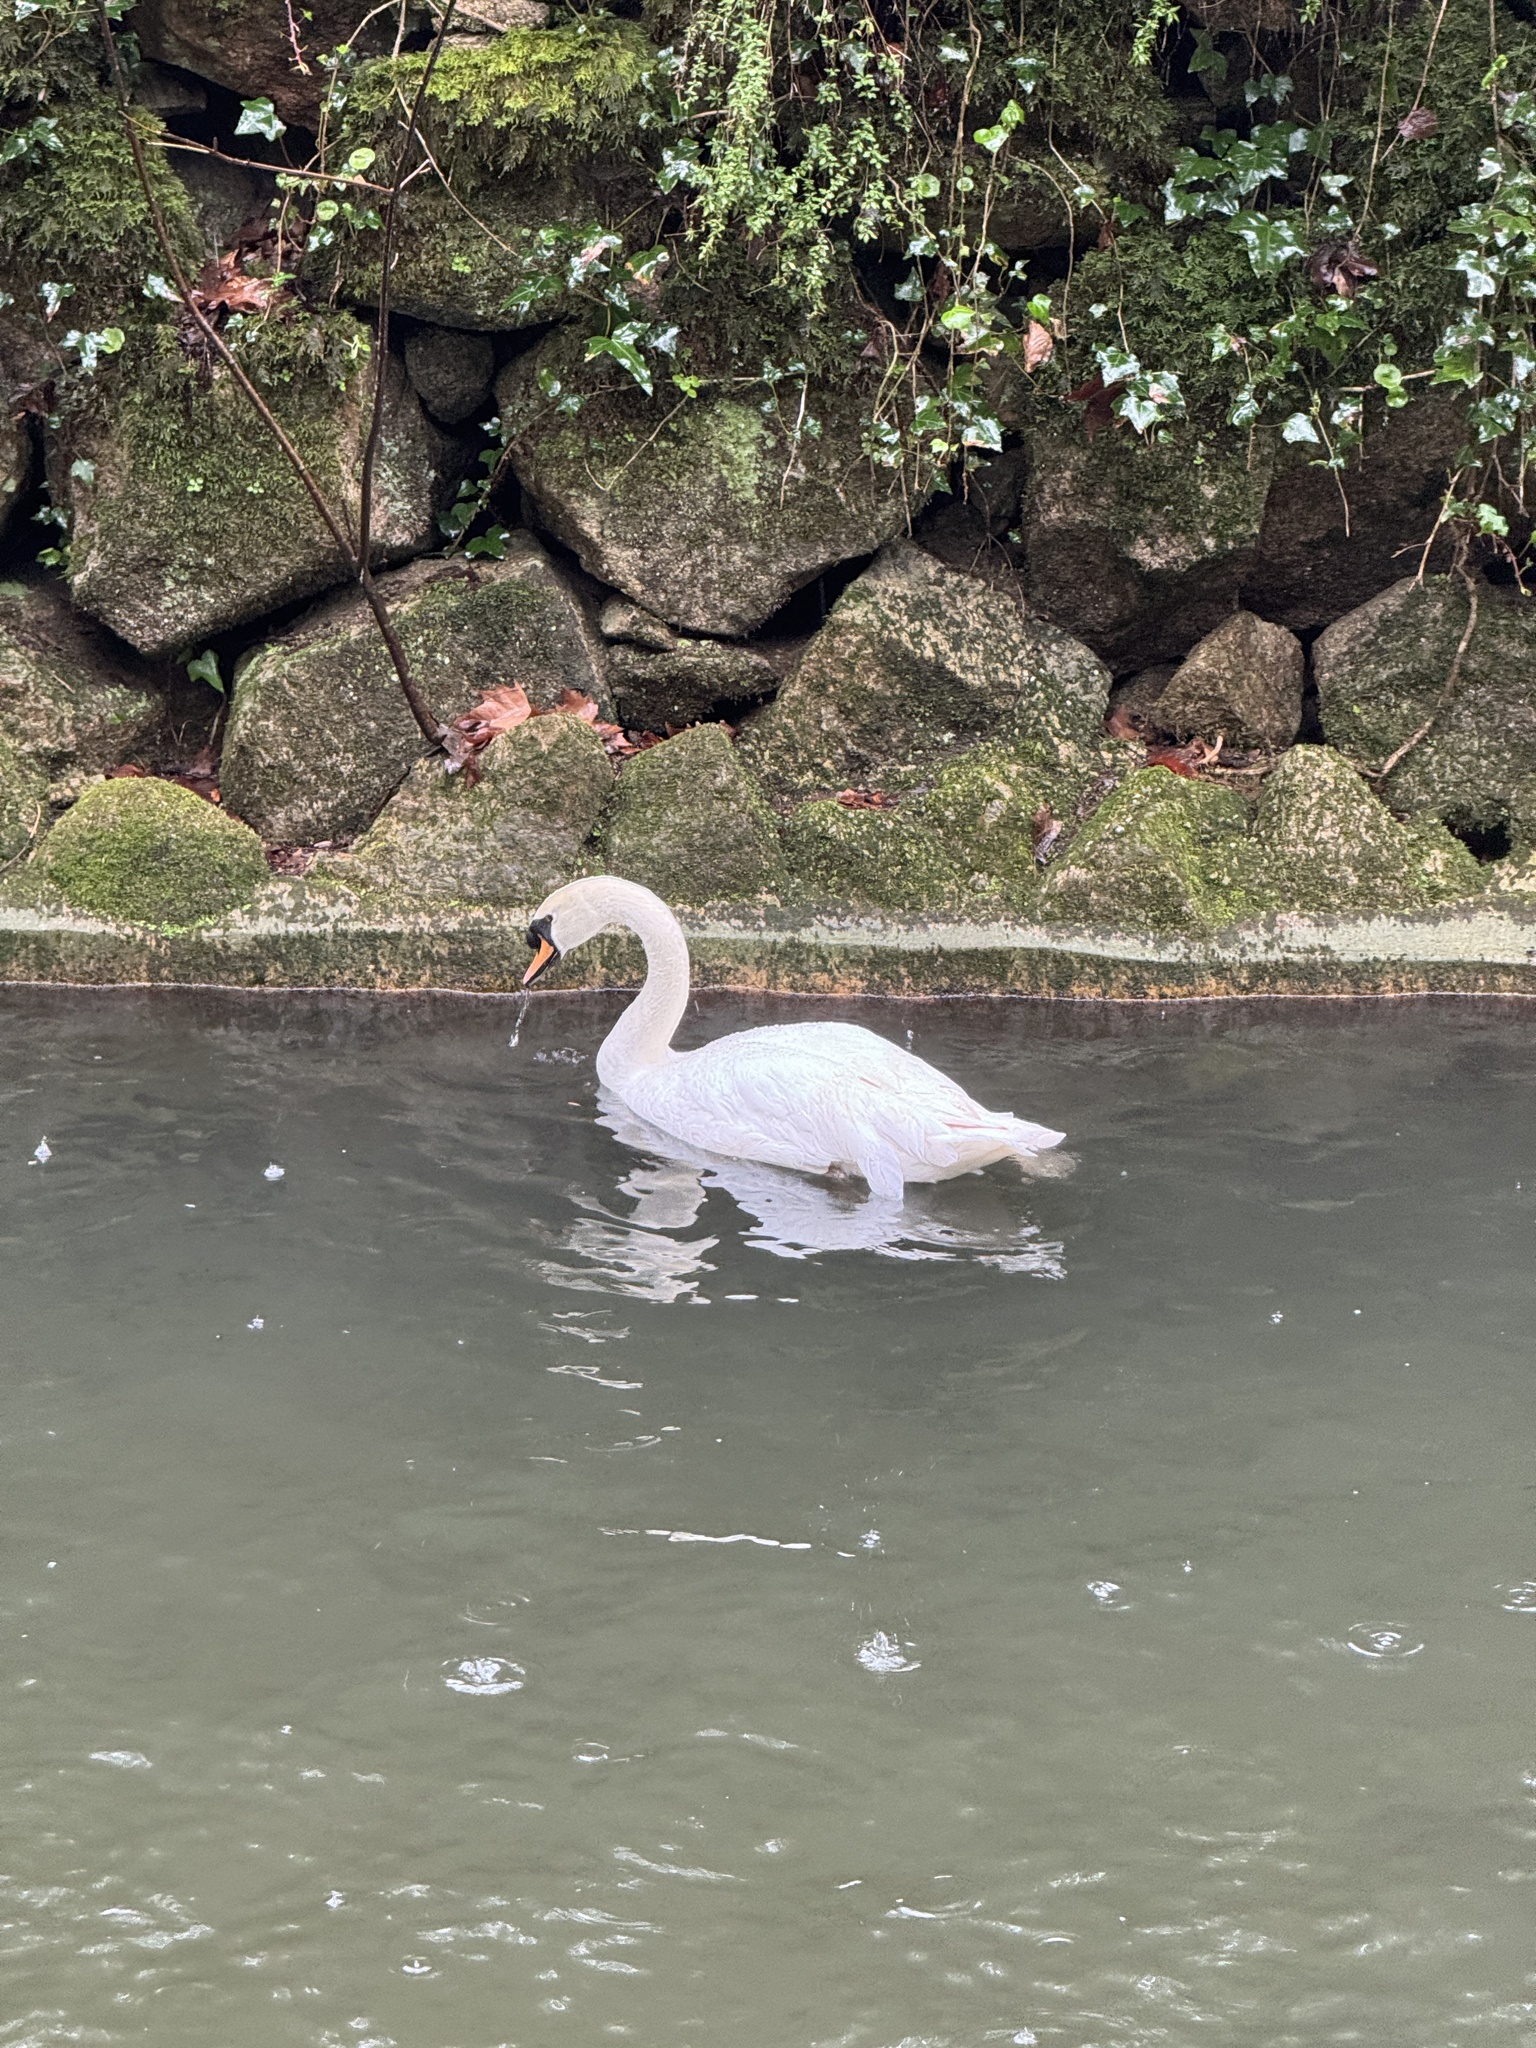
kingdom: Animalia
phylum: Chordata
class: Aves
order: Anseriformes
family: Anatidae
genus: Cygnus
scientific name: Cygnus olor
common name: Mute swan
